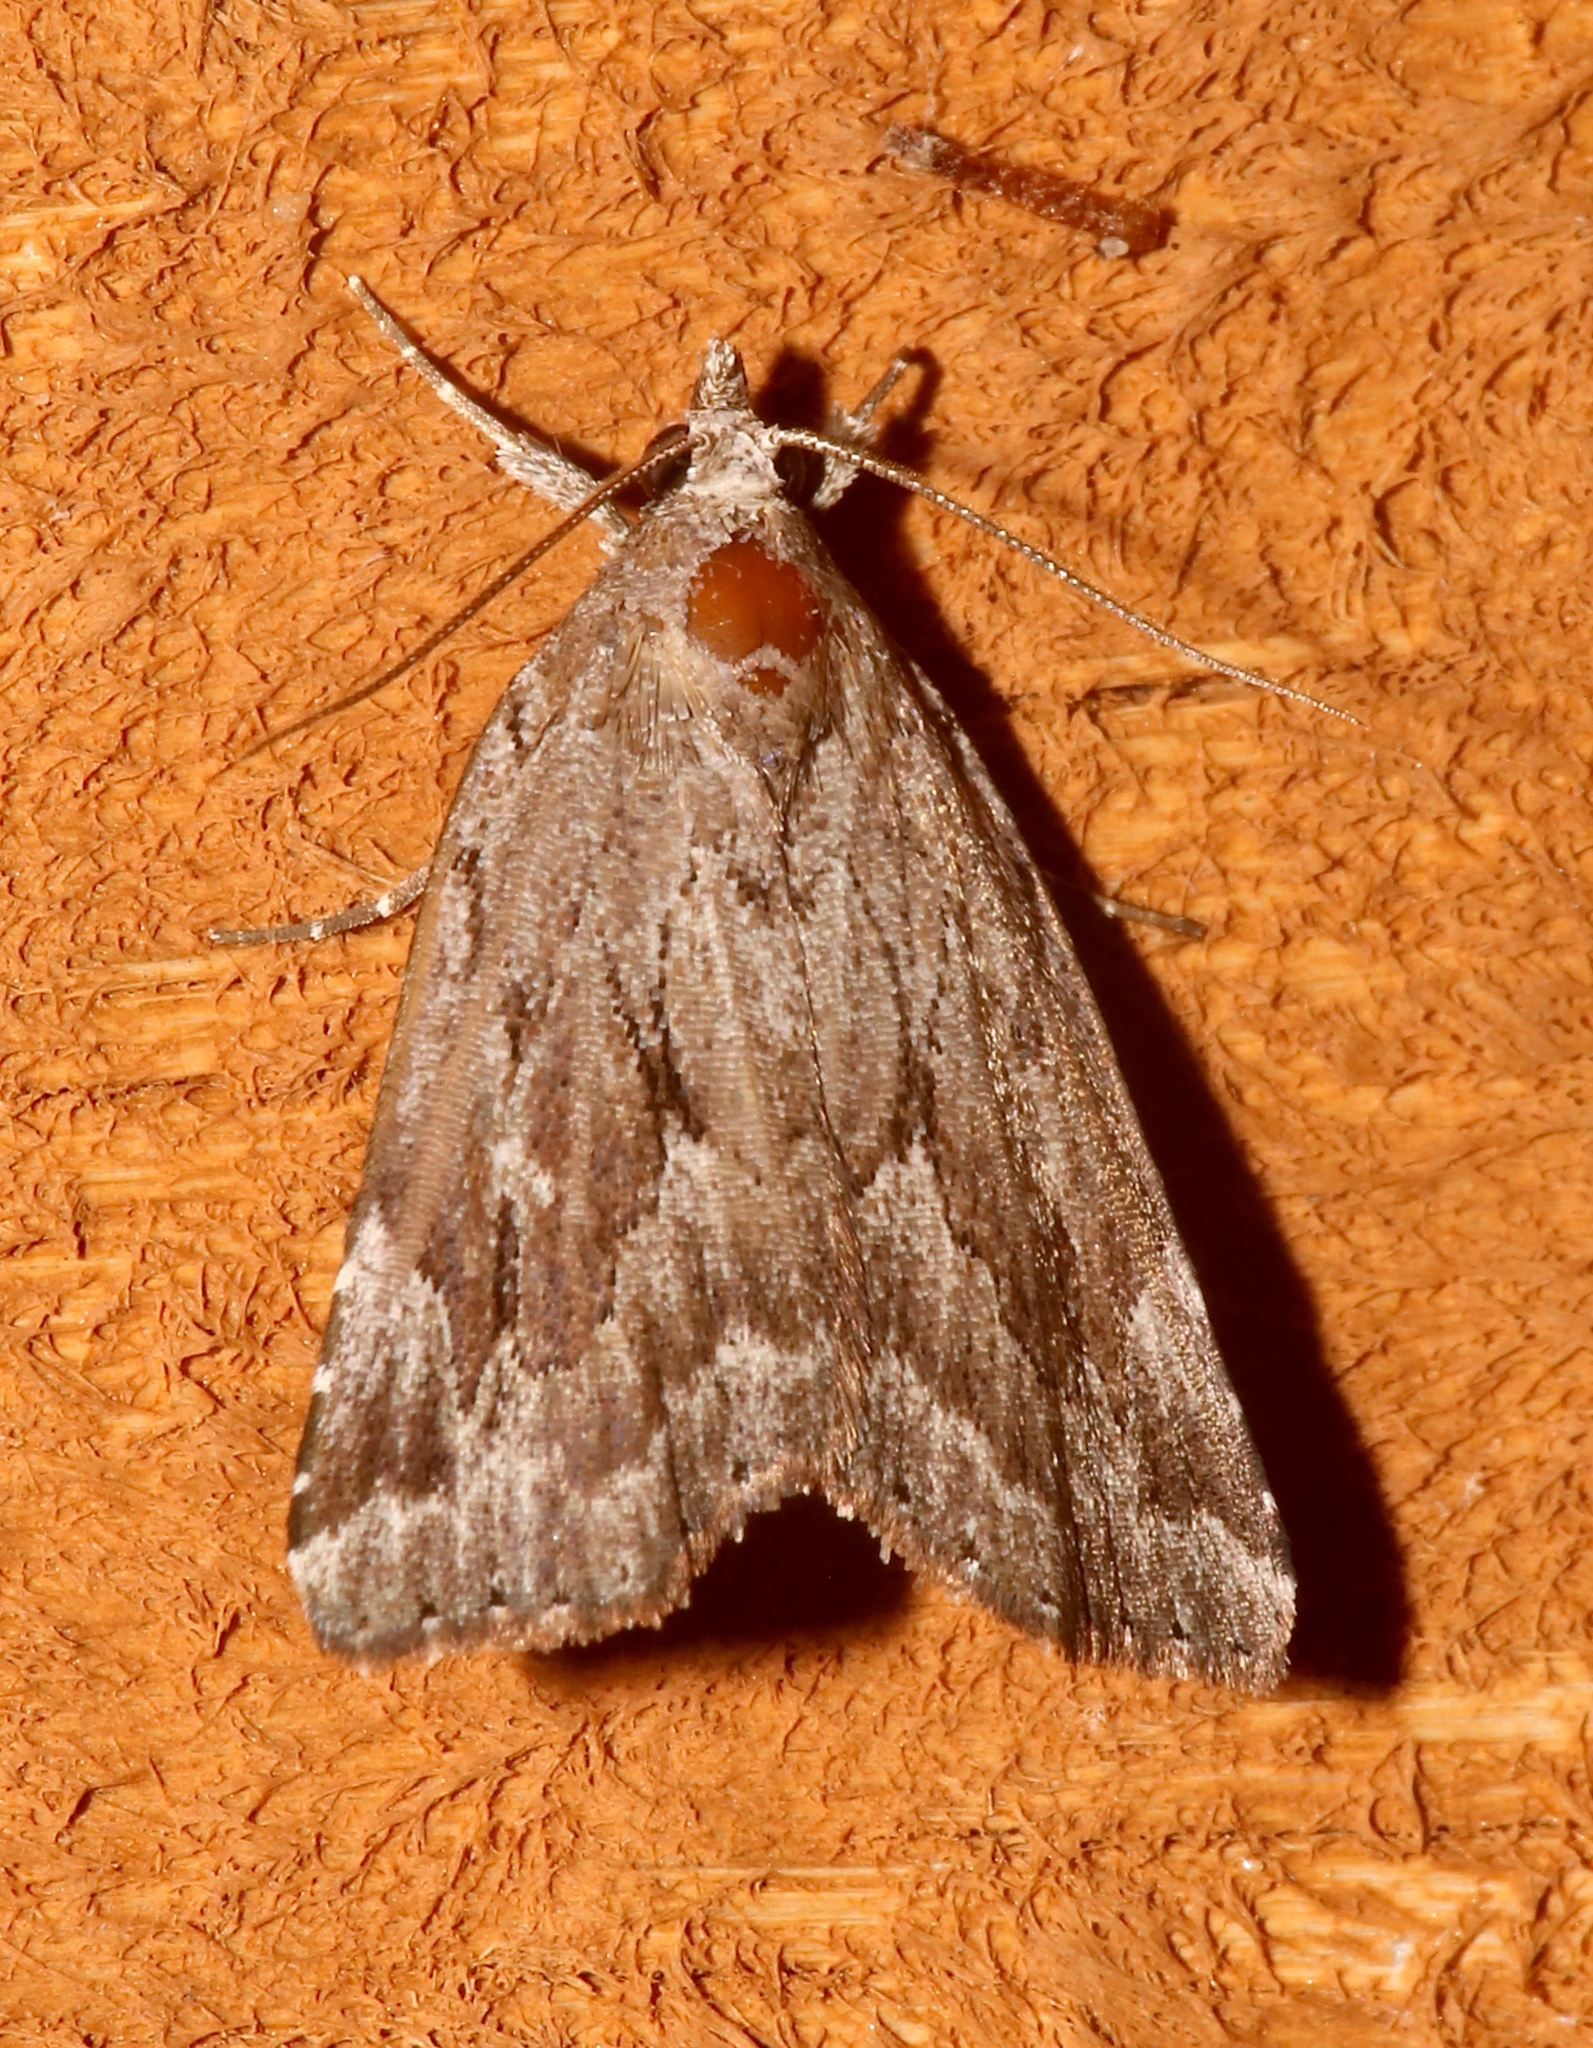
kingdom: Animalia
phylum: Arthropoda
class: Insecta
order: Lepidoptera
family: Erebidae
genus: Cutina
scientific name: Cutina albopunctella
